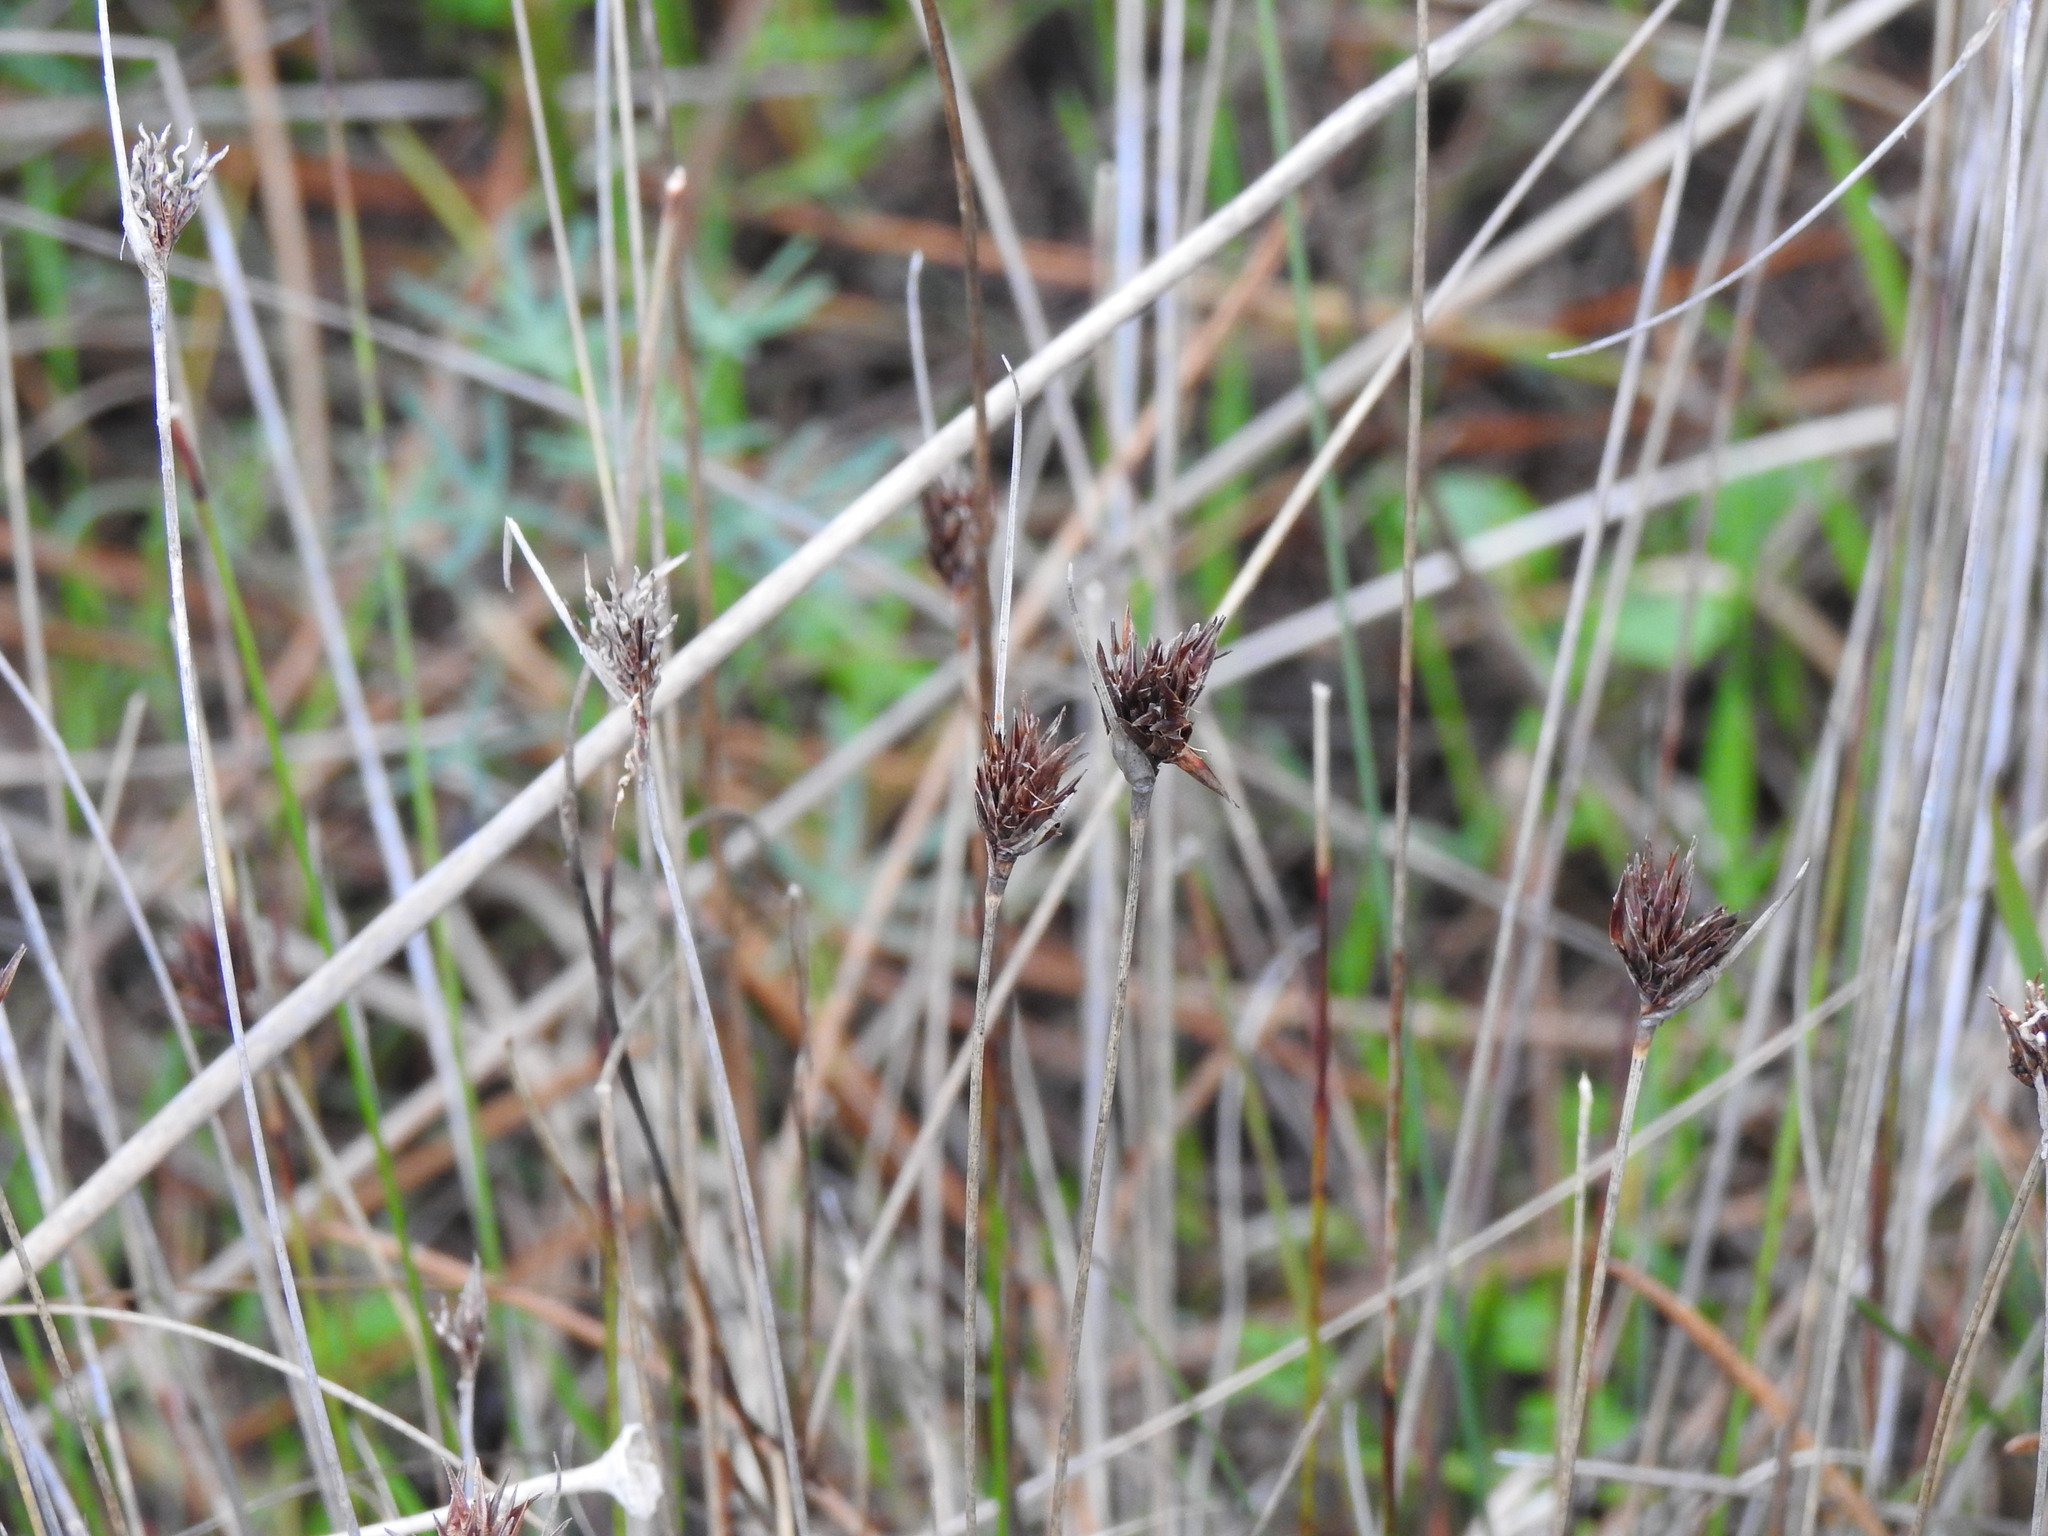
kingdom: Plantae
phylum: Tracheophyta
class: Liliopsida
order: Poales
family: Cyperaceae
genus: Schoenus
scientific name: Schoenus nigricans
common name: Black bog-rush
